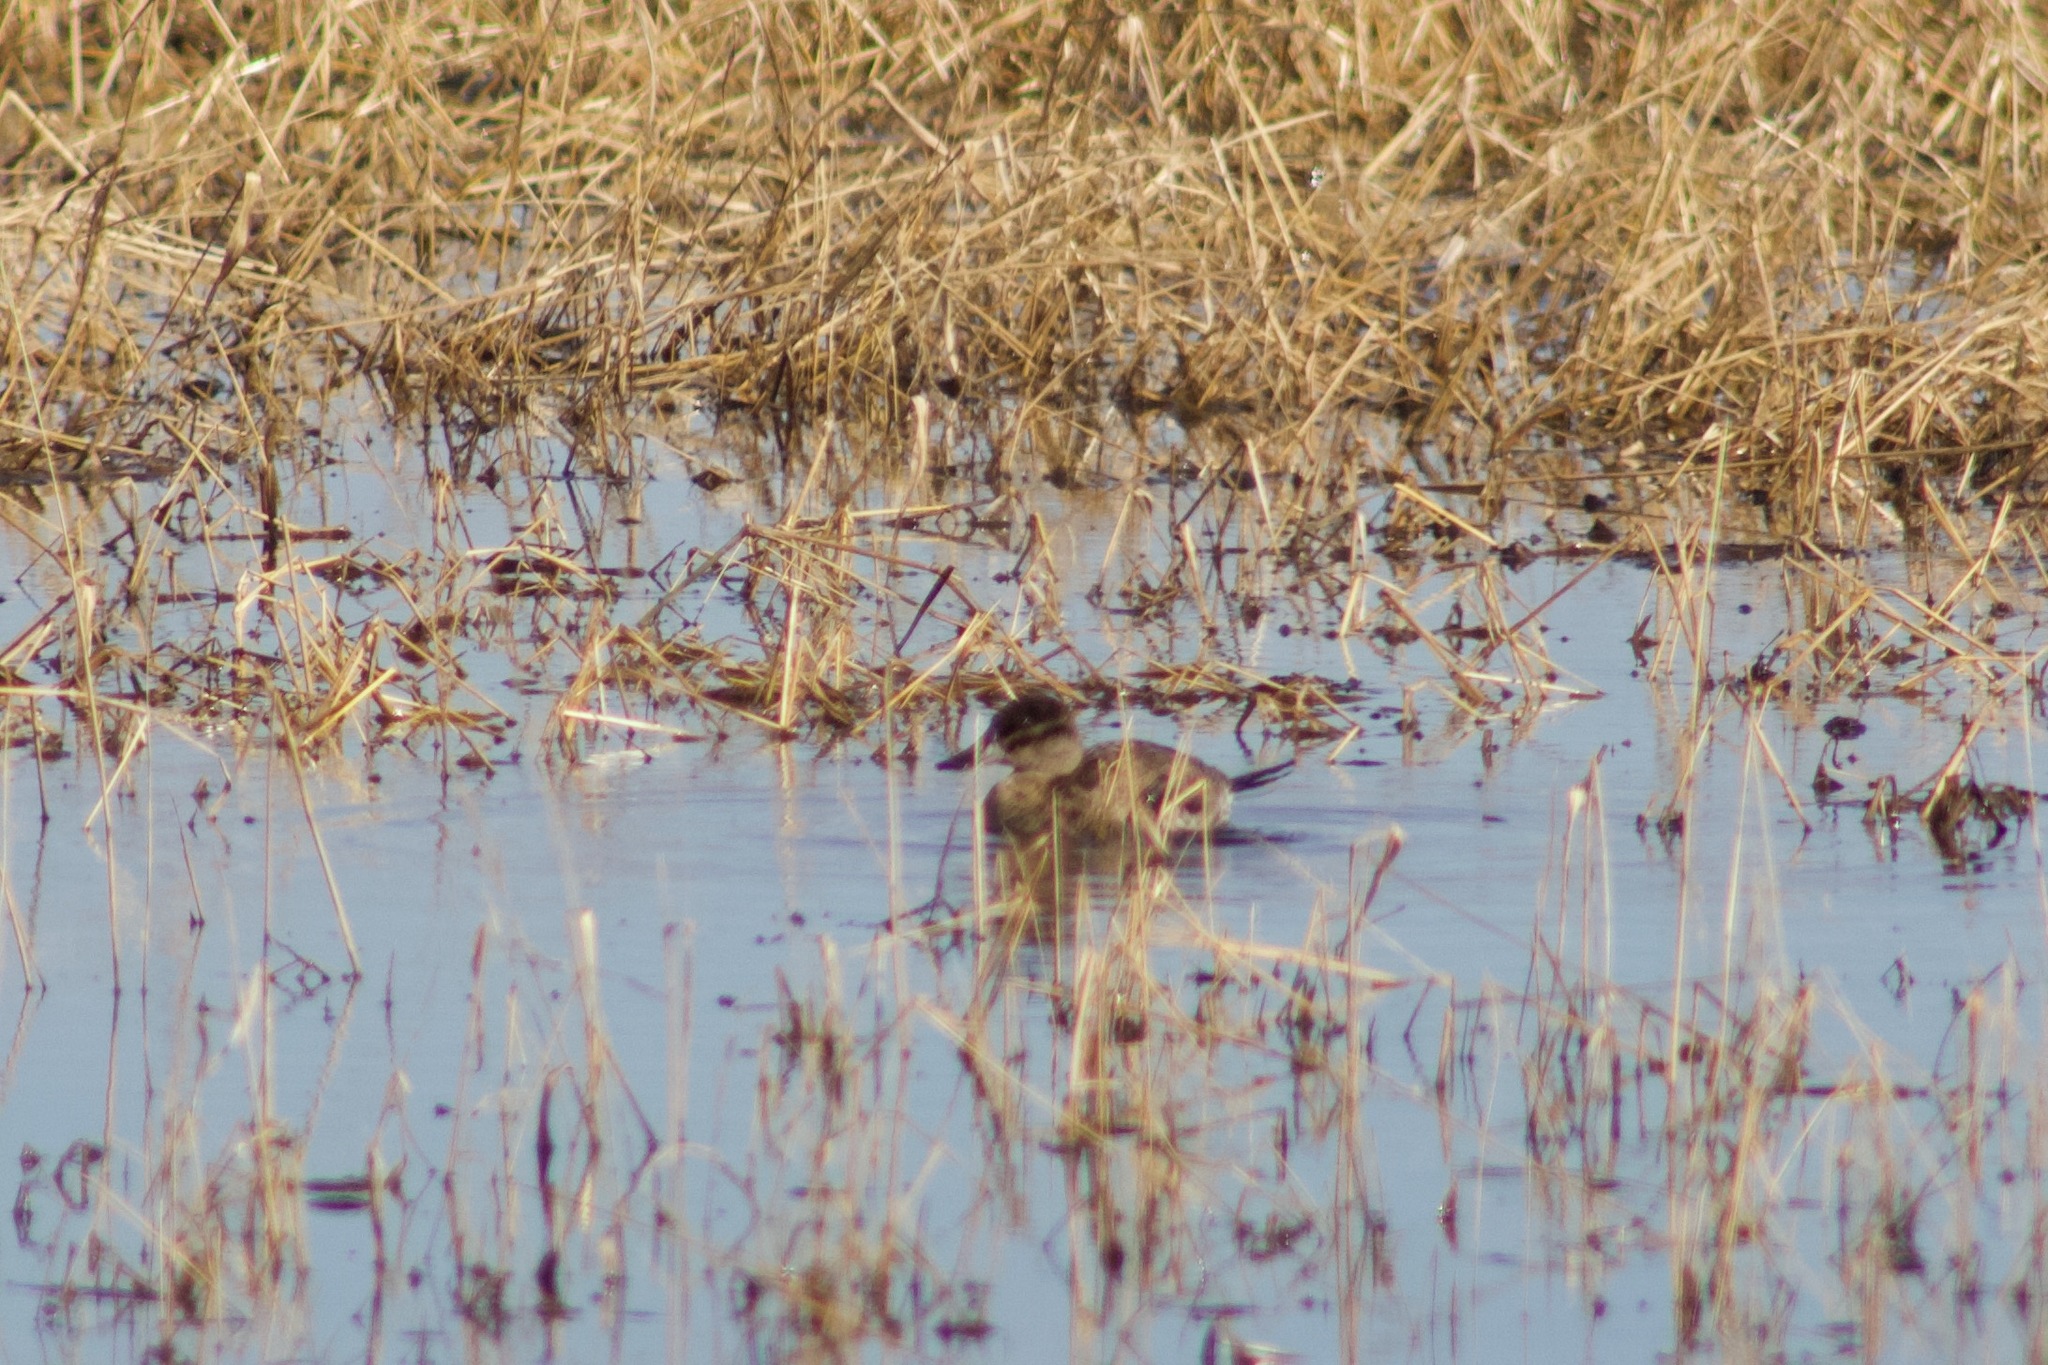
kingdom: Animalia
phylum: Chordata
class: Aves
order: Anseriformes
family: Anatidae
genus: Oxyura
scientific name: Oxyura jamaicensis
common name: Ruddy duck
